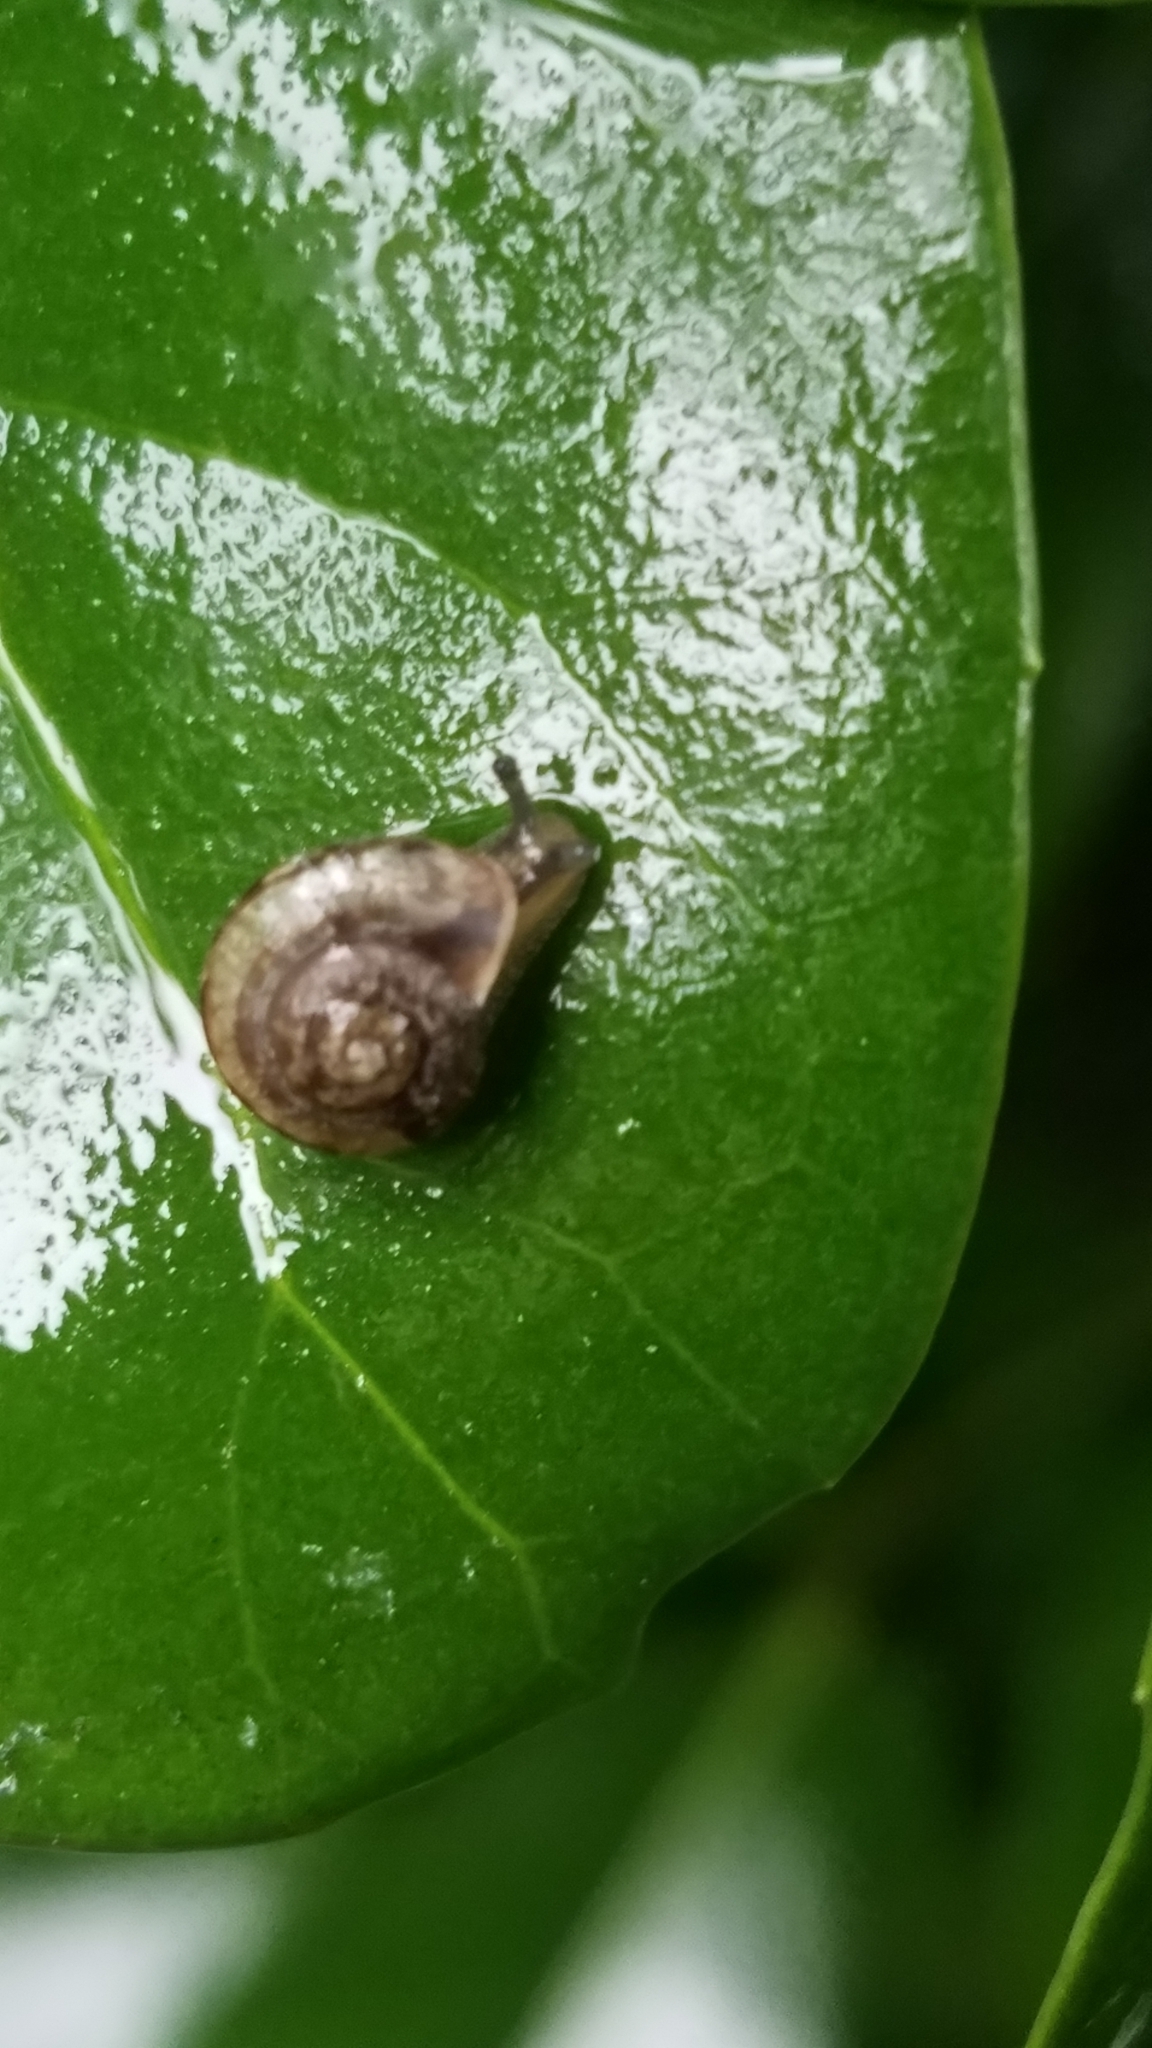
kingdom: Animalia
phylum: Mollusca
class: Gastropoda
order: Stylommatophora
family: Camaenidae
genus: Bradybaena
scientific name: Bradybaena similaris
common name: Asian trampsnail
